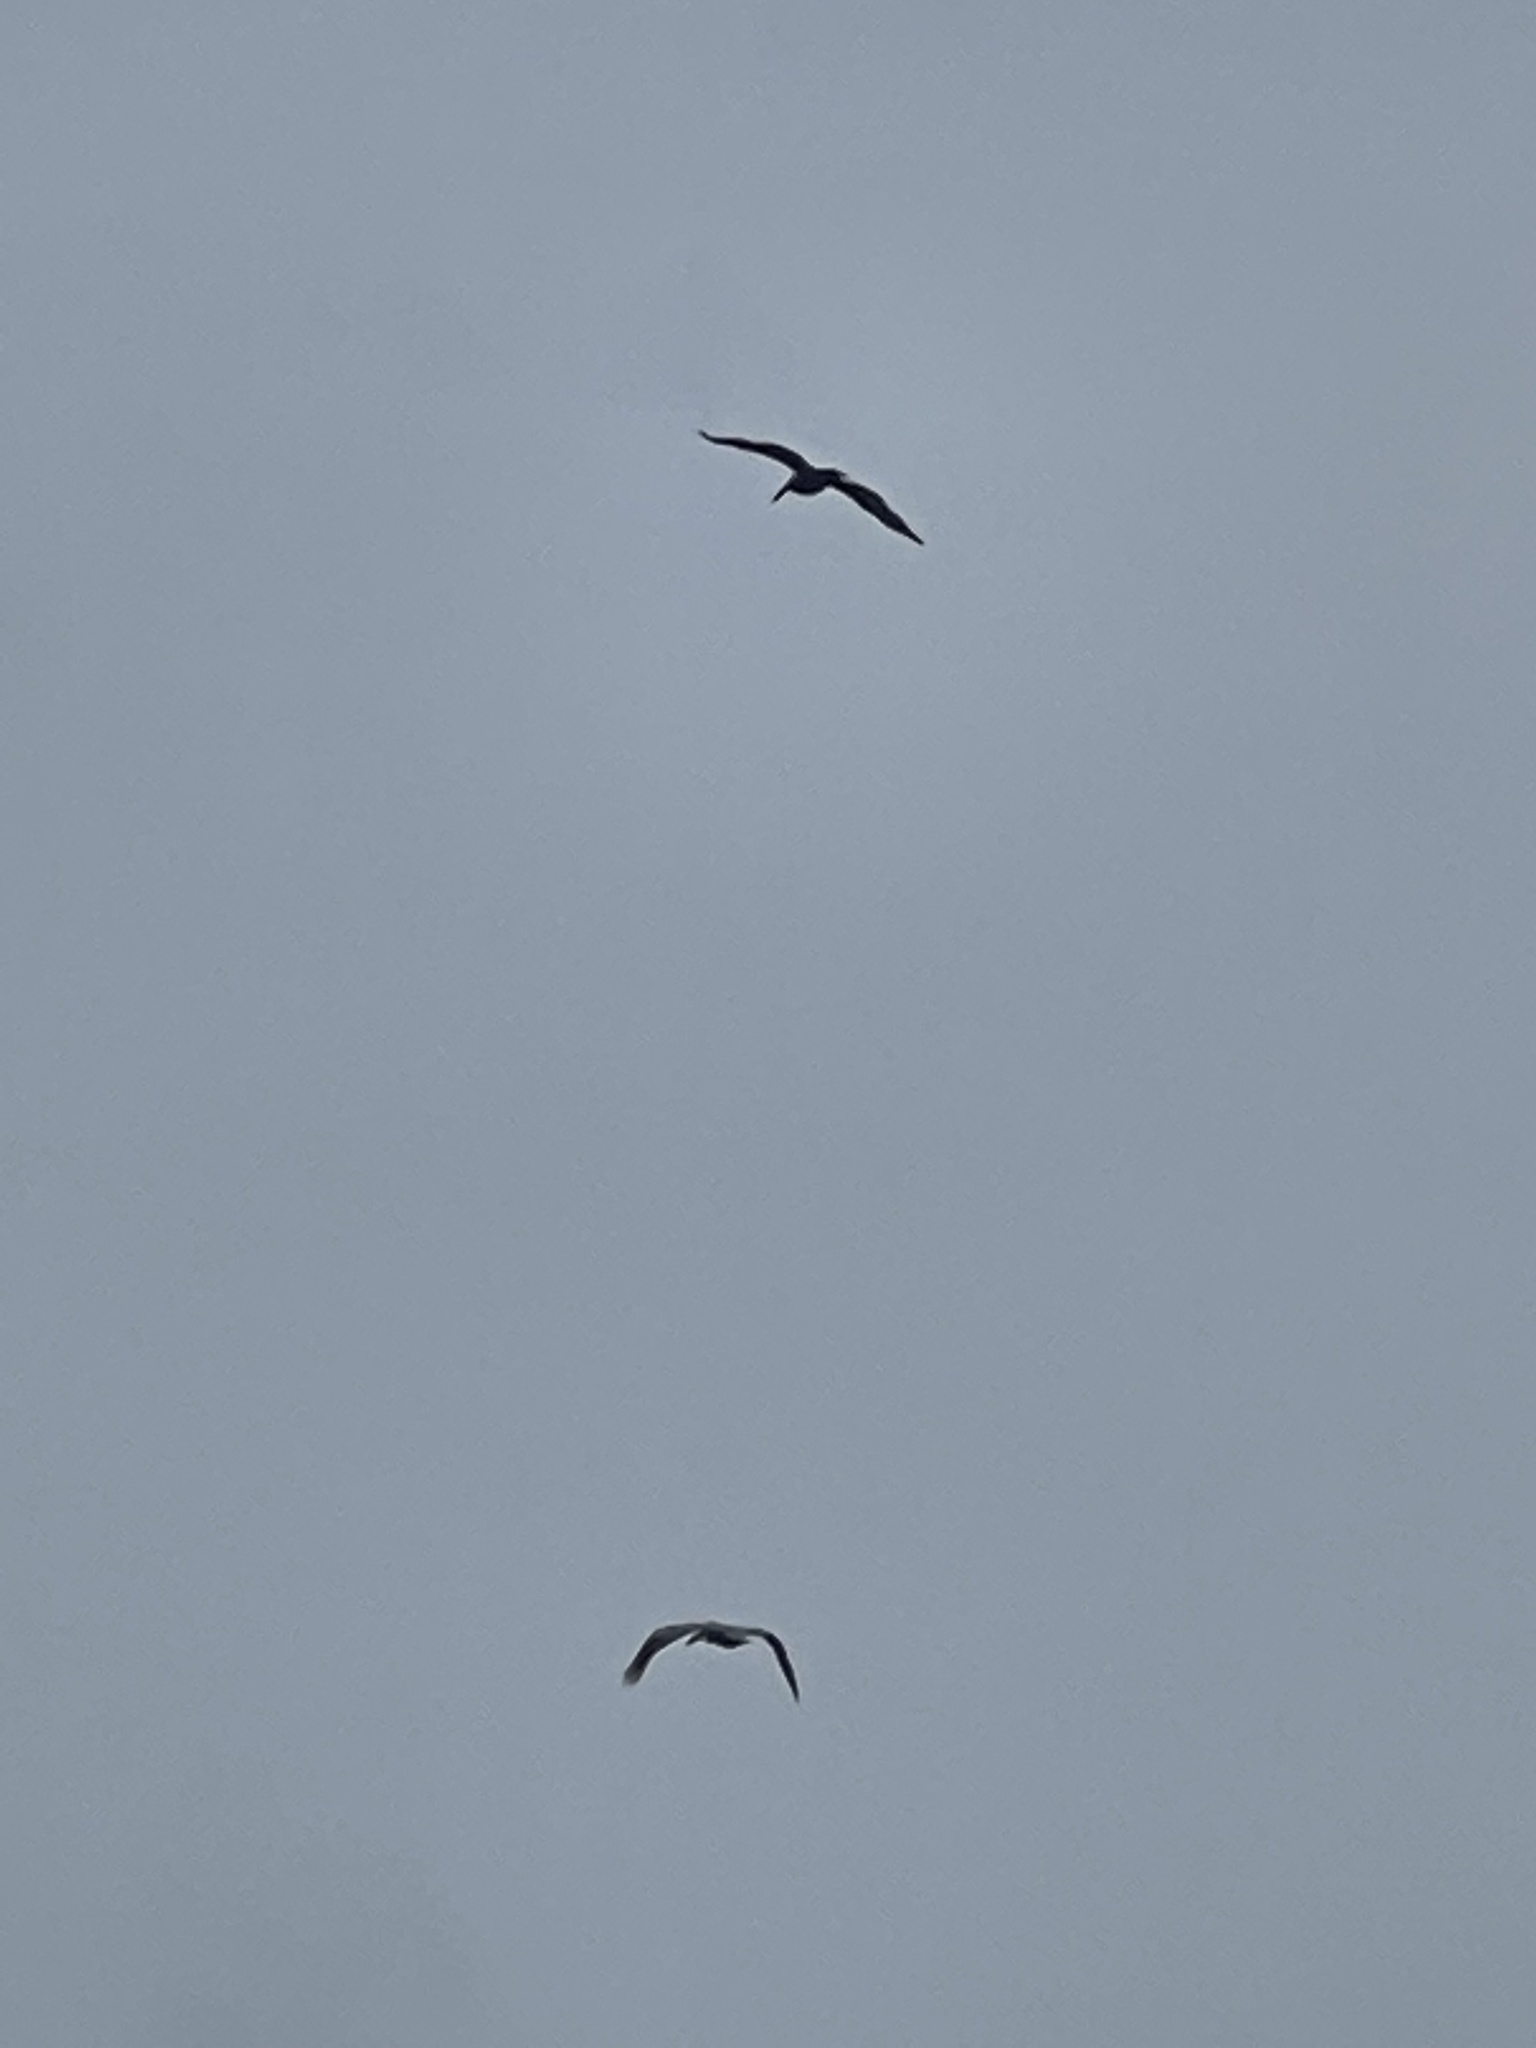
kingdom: Animalia
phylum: Chordata
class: Aves
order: Pelecaniformes
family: Pelecanidae
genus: Pelecanus
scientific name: Pelecanus occidentalis
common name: Brown pelican
